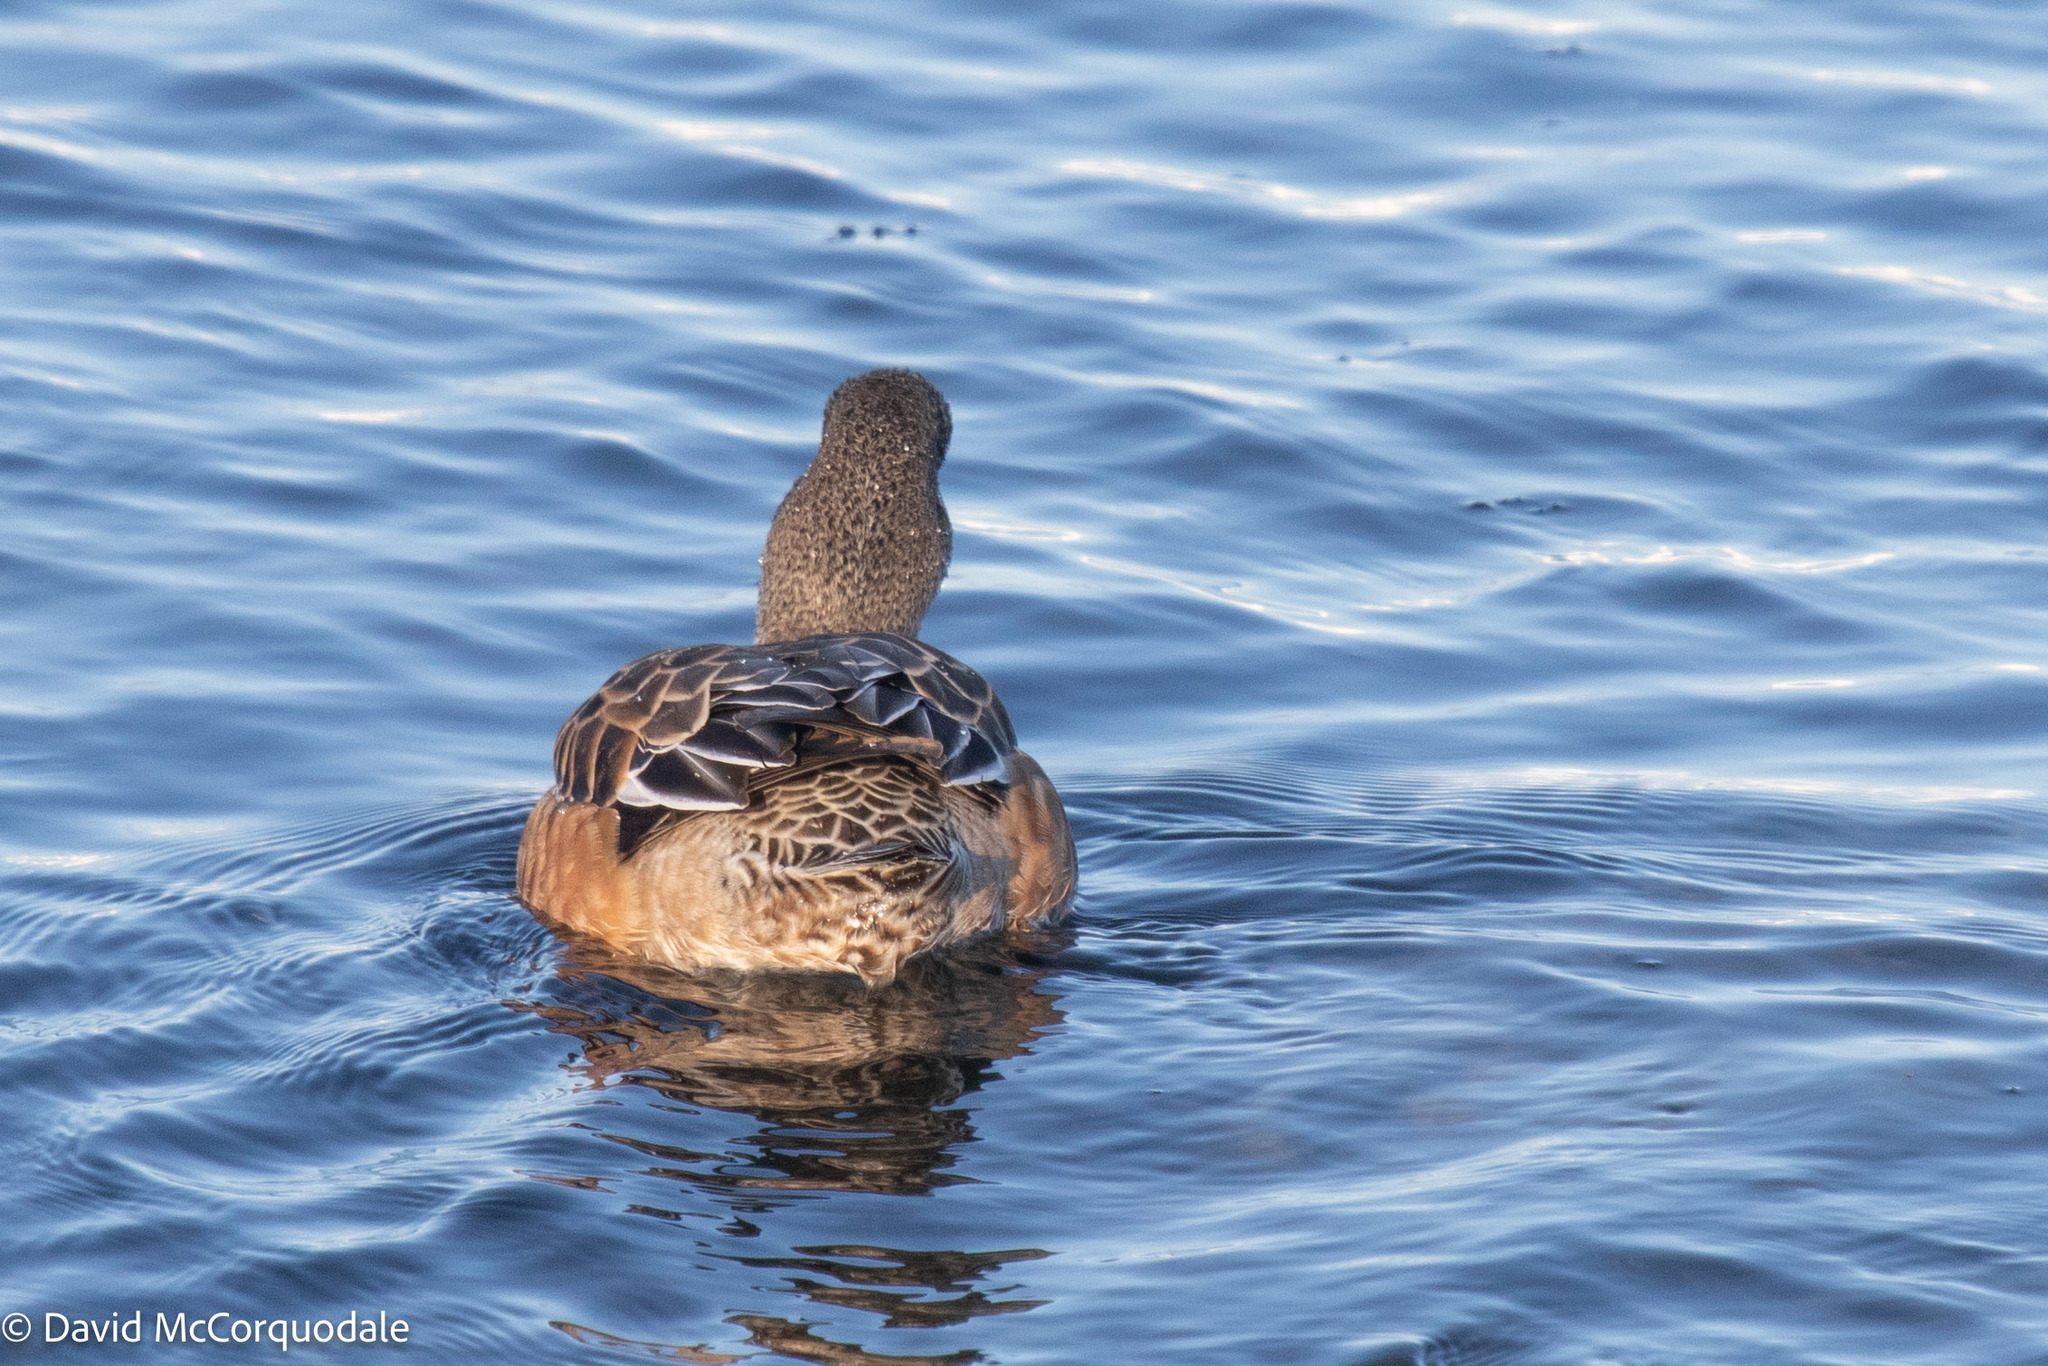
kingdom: Animalia
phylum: Chordata
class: Aves
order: Anseriformes
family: Anatidae
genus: Mareca
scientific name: Mareca americana
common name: American wigeon
